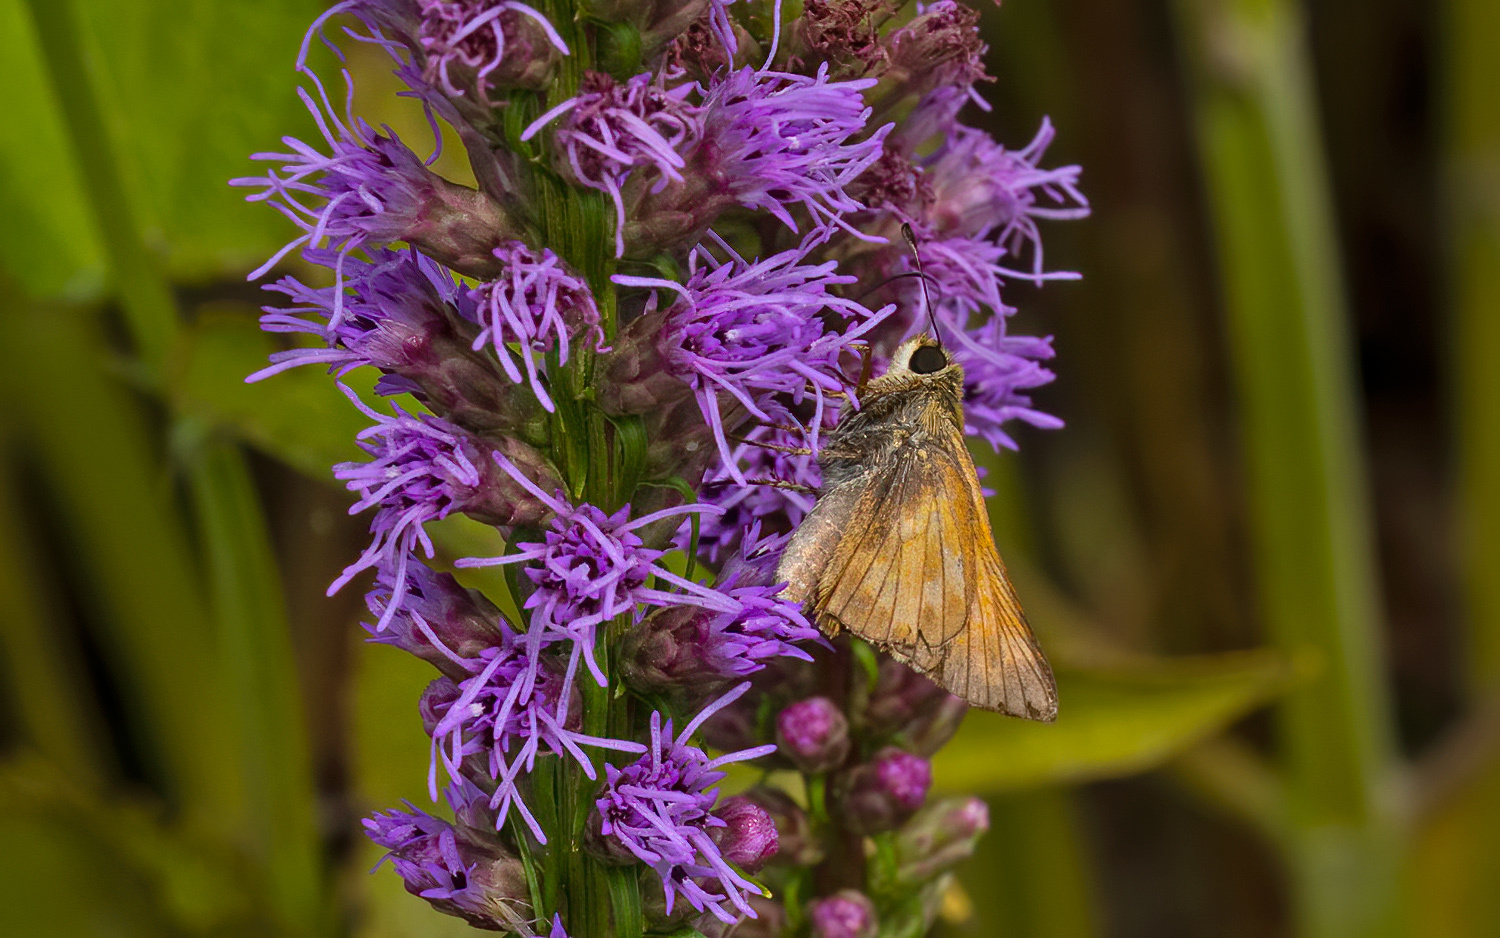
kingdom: Animalia
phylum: Arthropoda
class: Insecta
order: Lepidoptera
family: Hesperiidae
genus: Atalopedes
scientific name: Atalopedes
